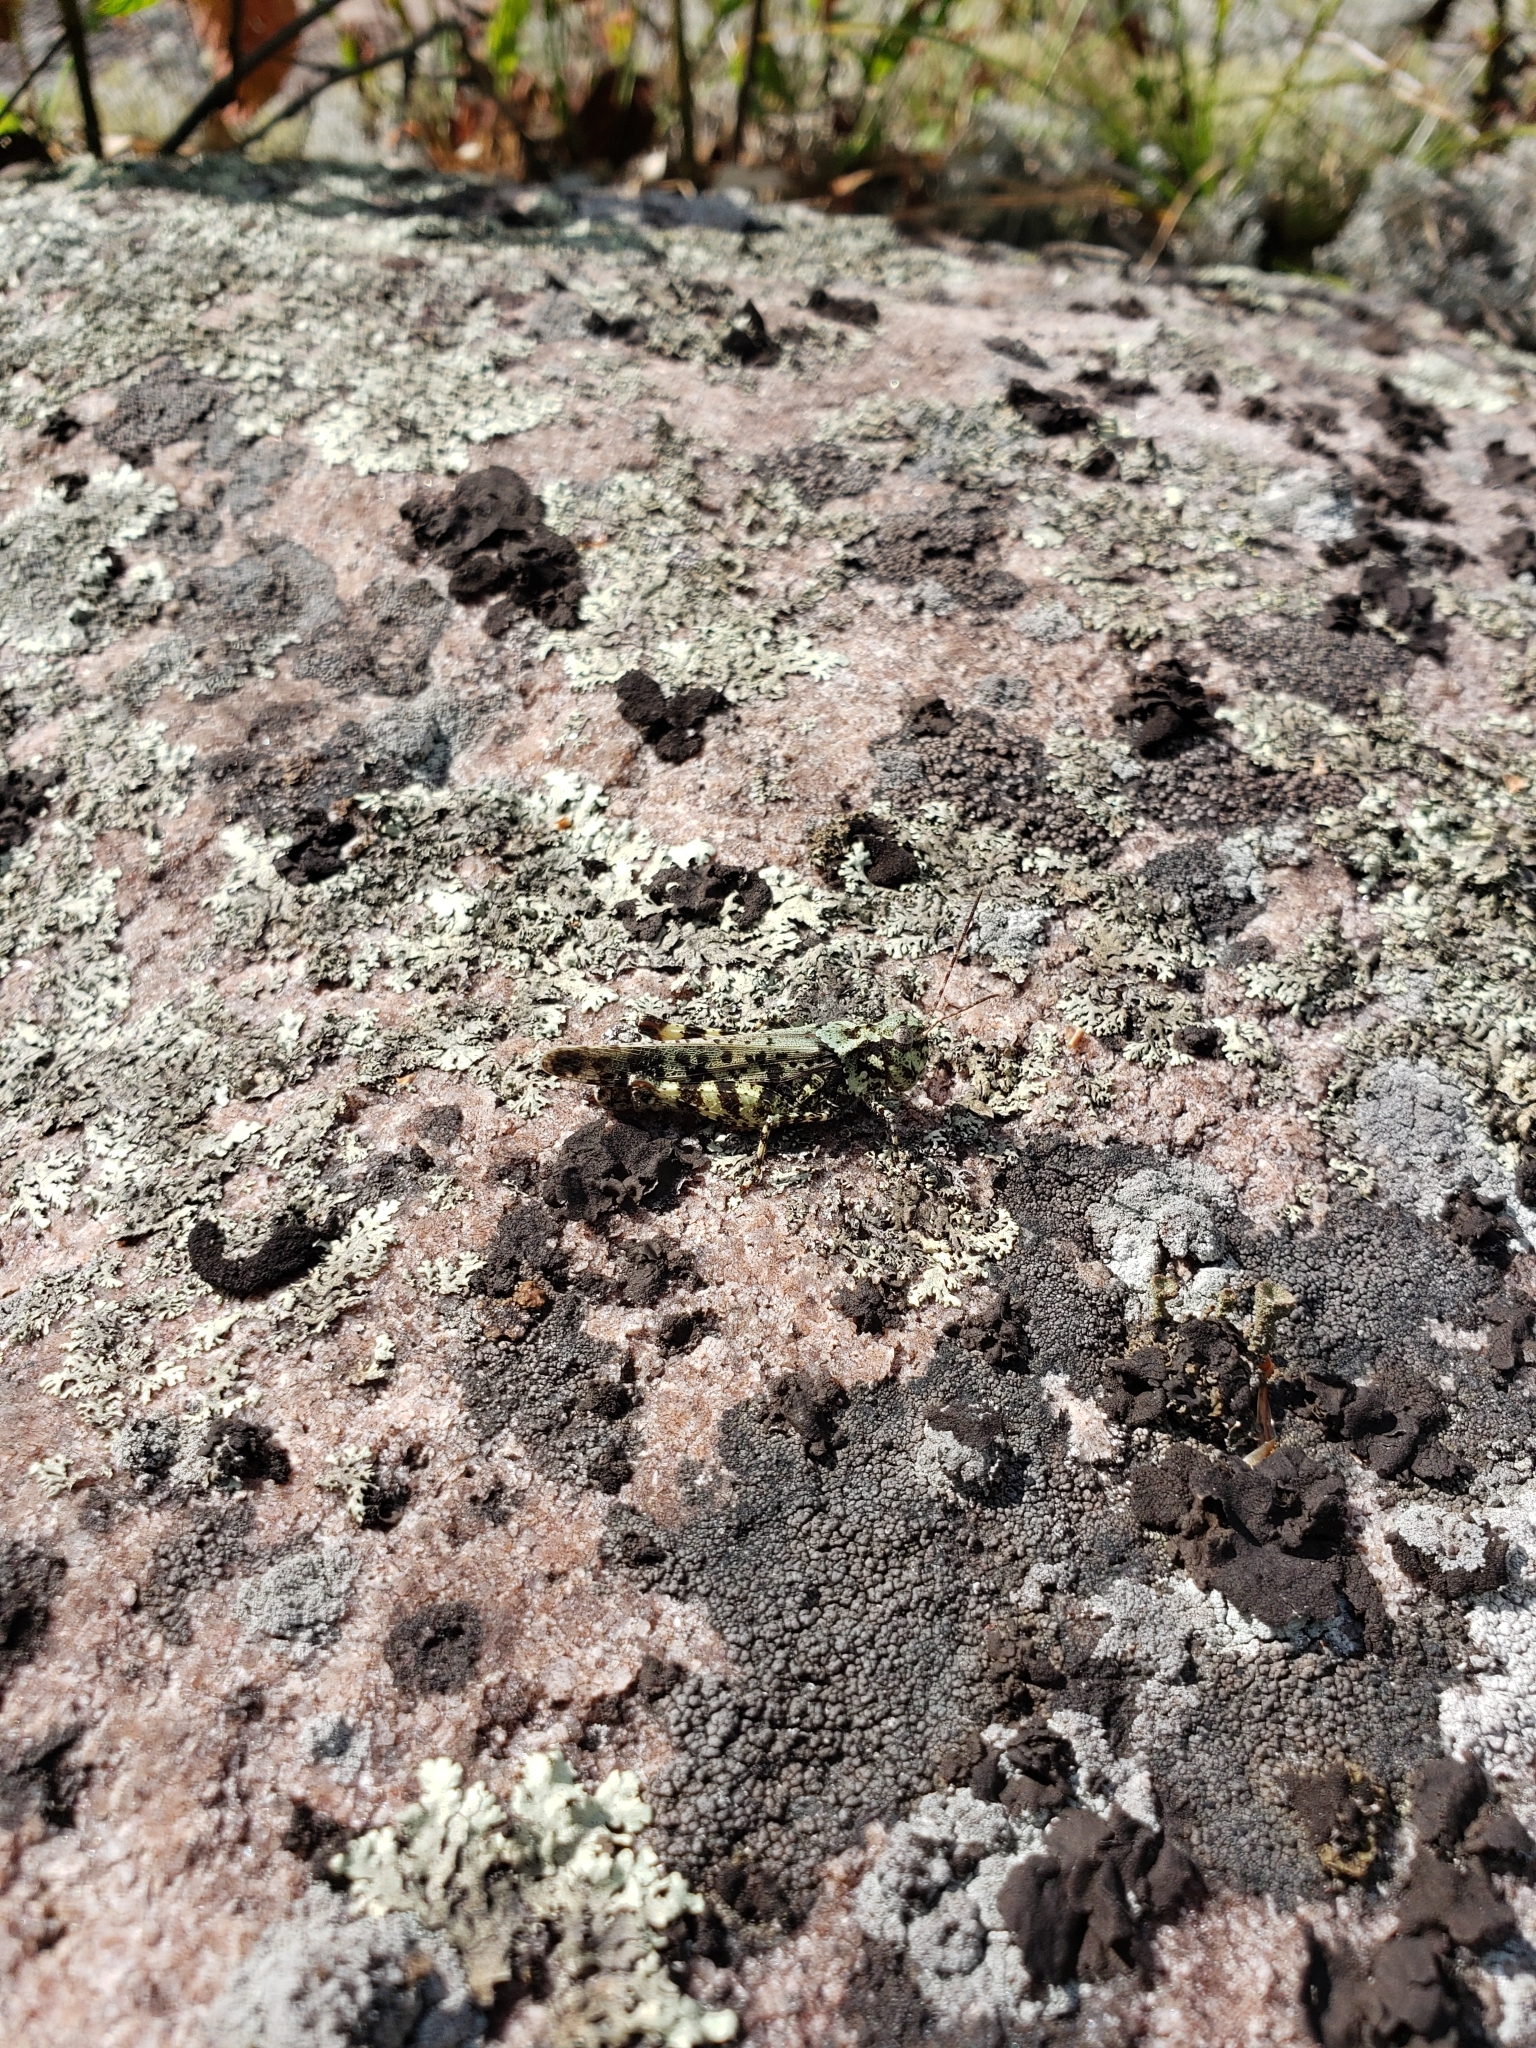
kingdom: Animalia
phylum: Arthropoda
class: Insecta
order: Orthoptera
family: Acrididae
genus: Spharagemon
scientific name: Spharagemon marmoratum
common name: Marbled grasshopper
